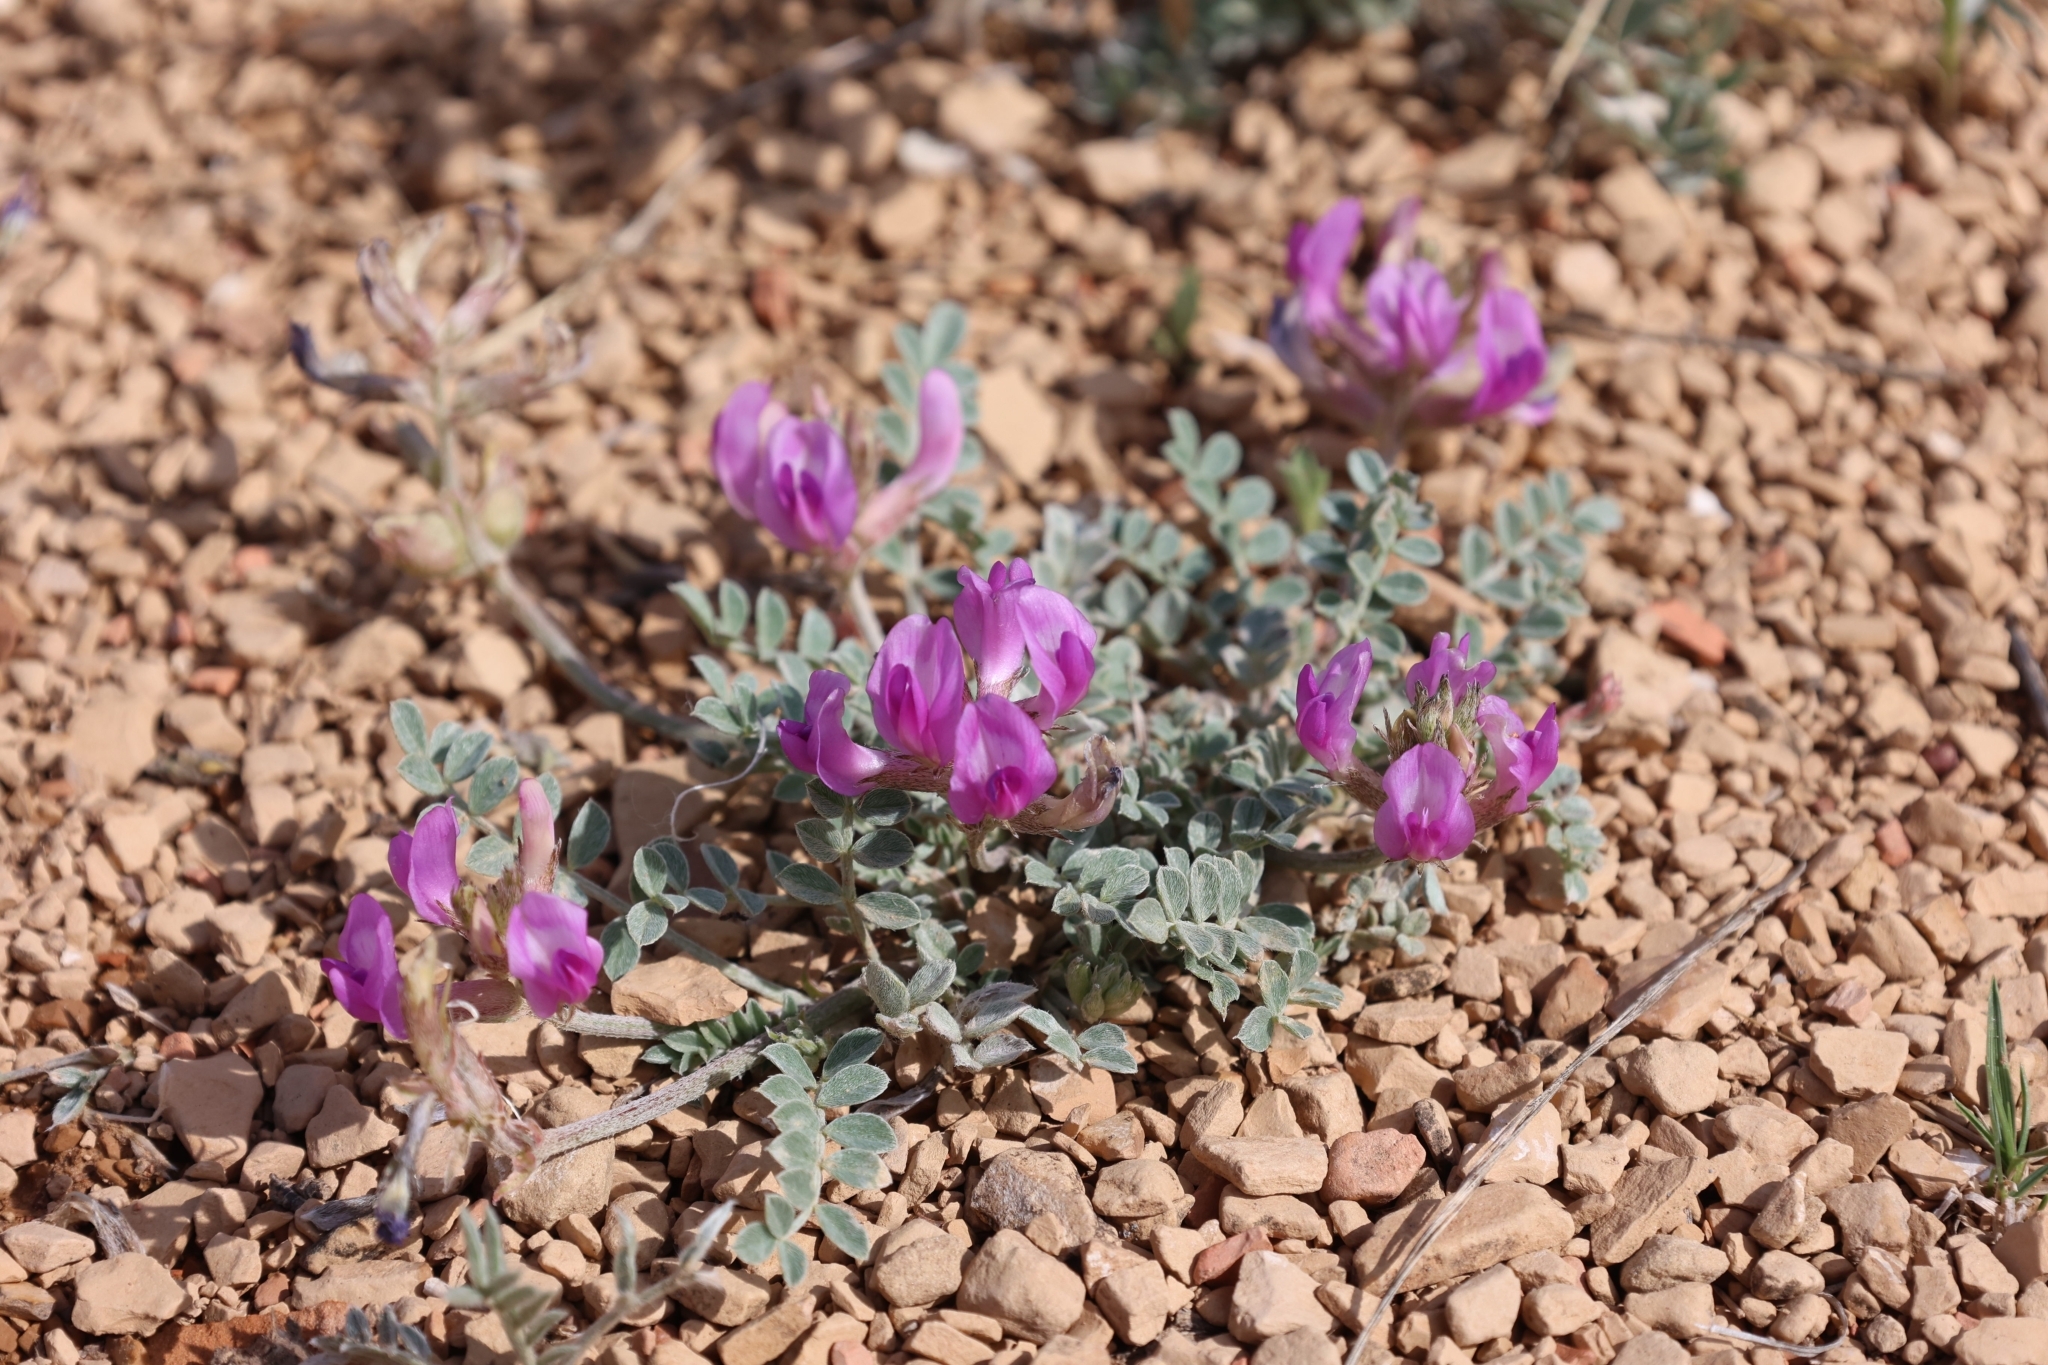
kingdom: Plantae
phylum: Tracheophyta
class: Magnoliopsida
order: Fabales
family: Fabaceae
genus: Astragalus
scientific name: Astragalus missouriensis
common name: Missouri milk-vetch
